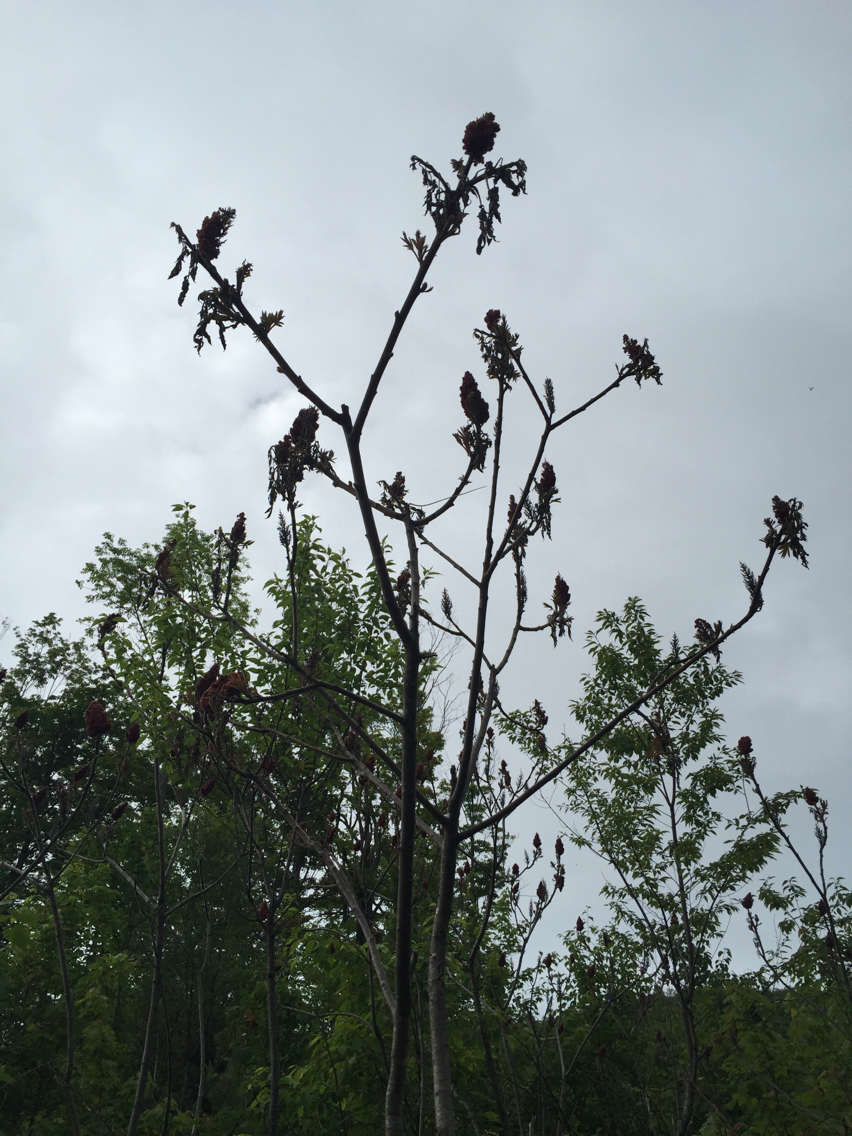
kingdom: Plantae
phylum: Tracheophyta
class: Magnoliopsida
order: Sapindales
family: Anacardiaceae
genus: Rhus
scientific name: Rhus typhina
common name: Staghorn sumac
